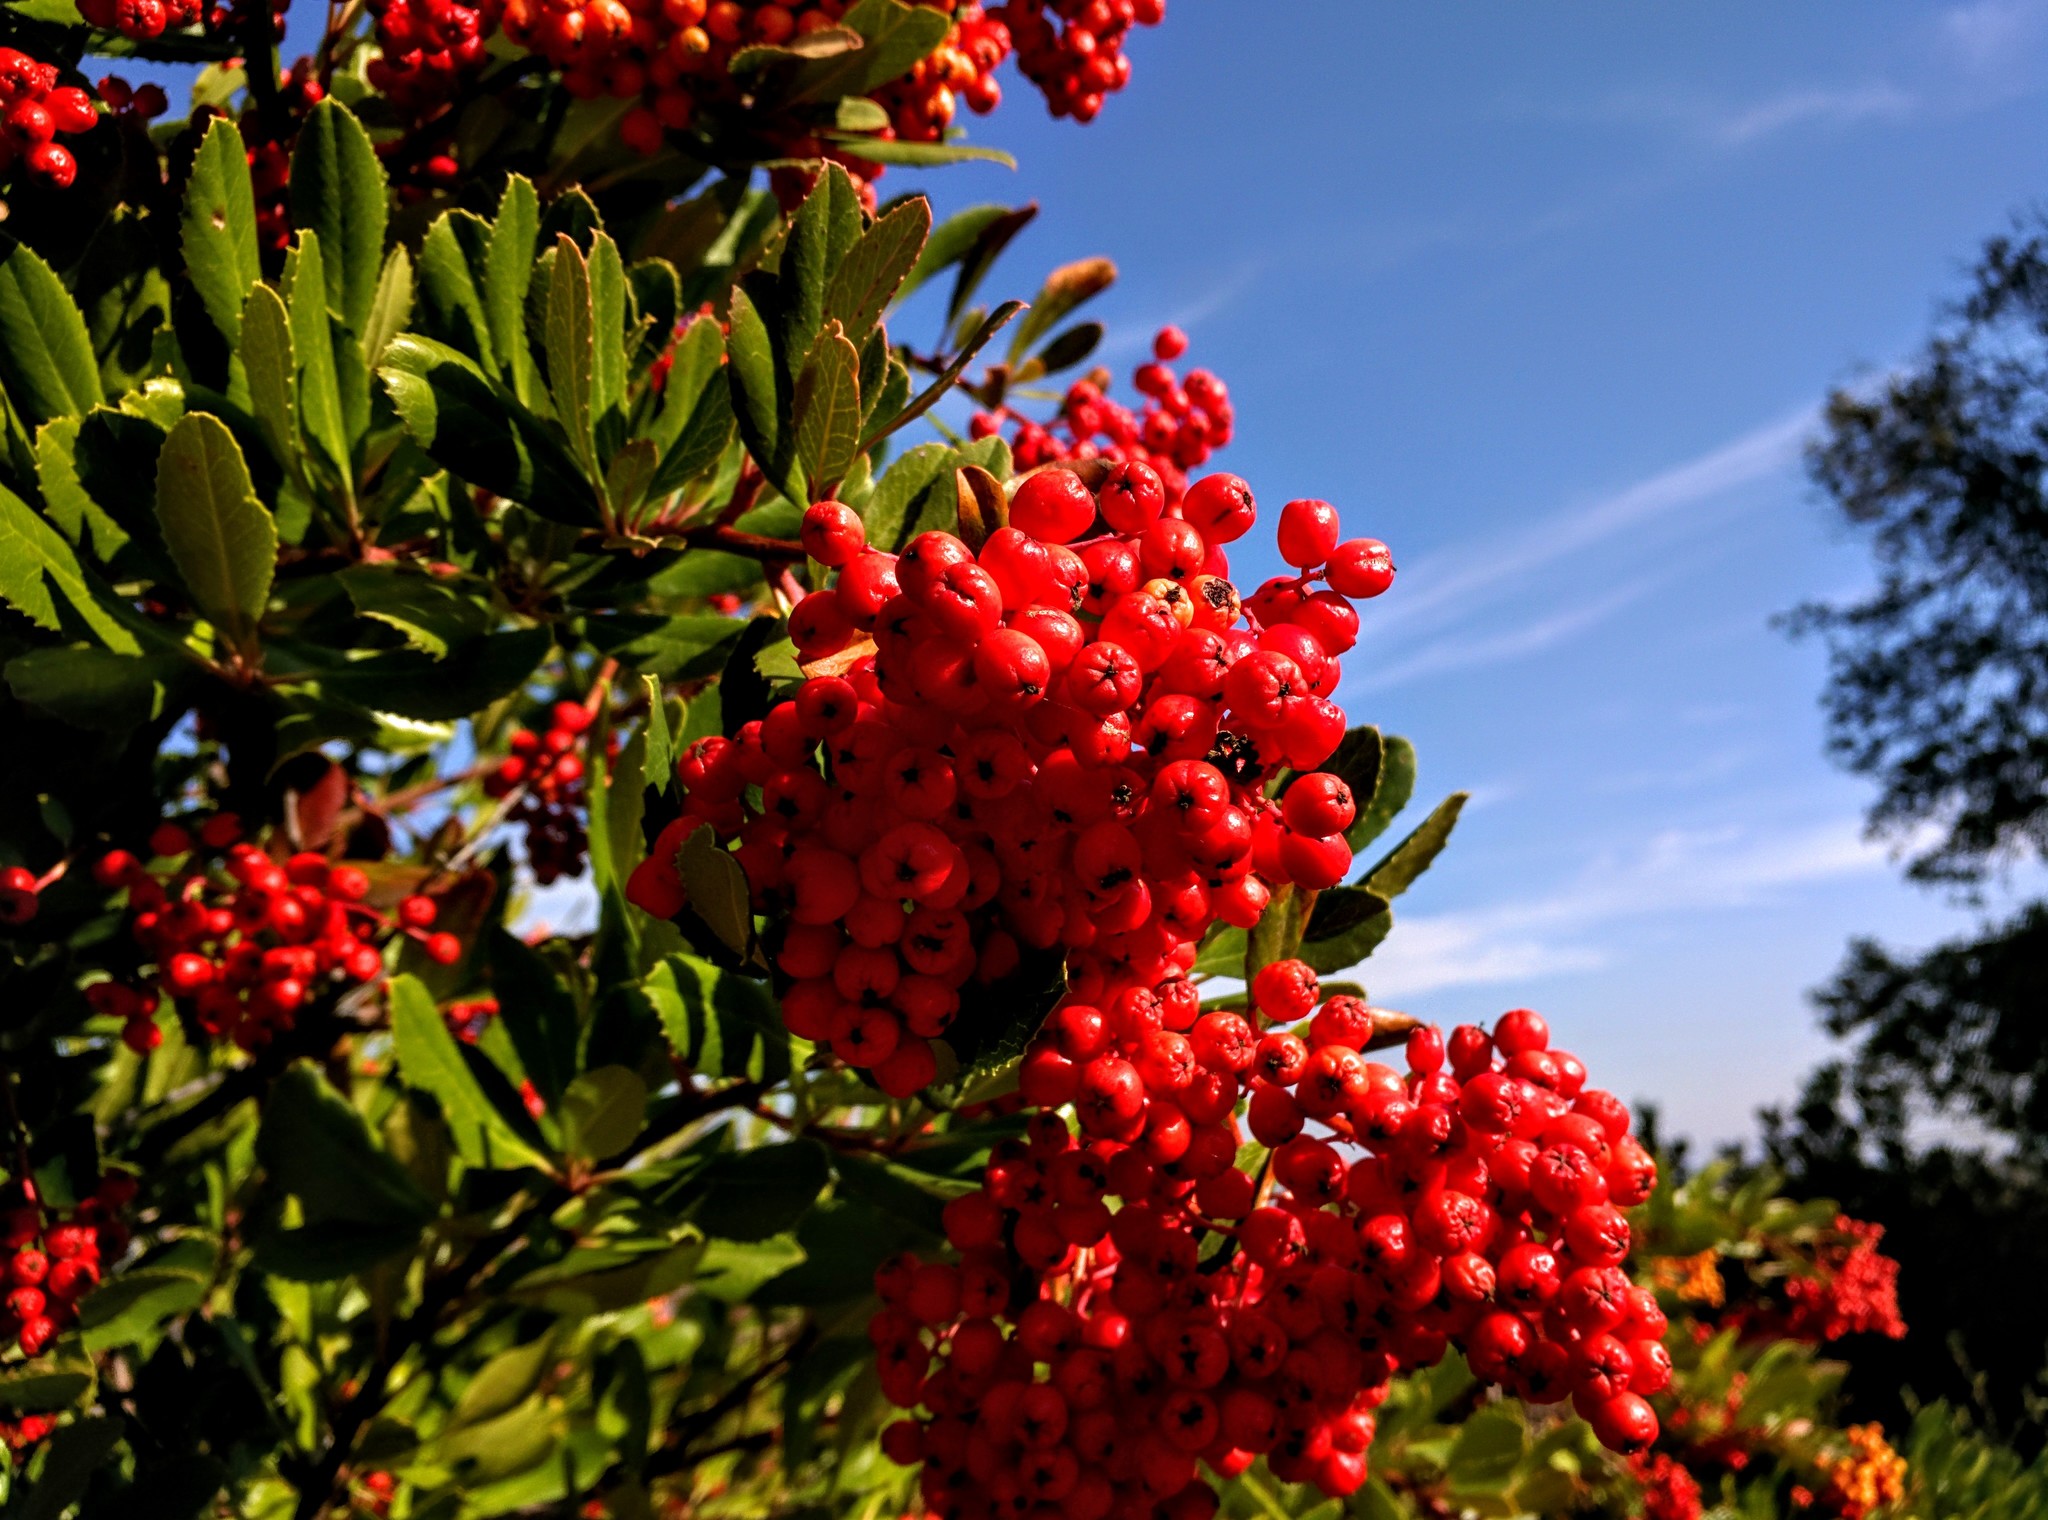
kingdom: Plantae
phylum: Tracheophyta
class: Magnoliopsida
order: Rosales
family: Rosaceae
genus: Heteromeles
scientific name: Heteromeles arbutifolia
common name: California-holly
